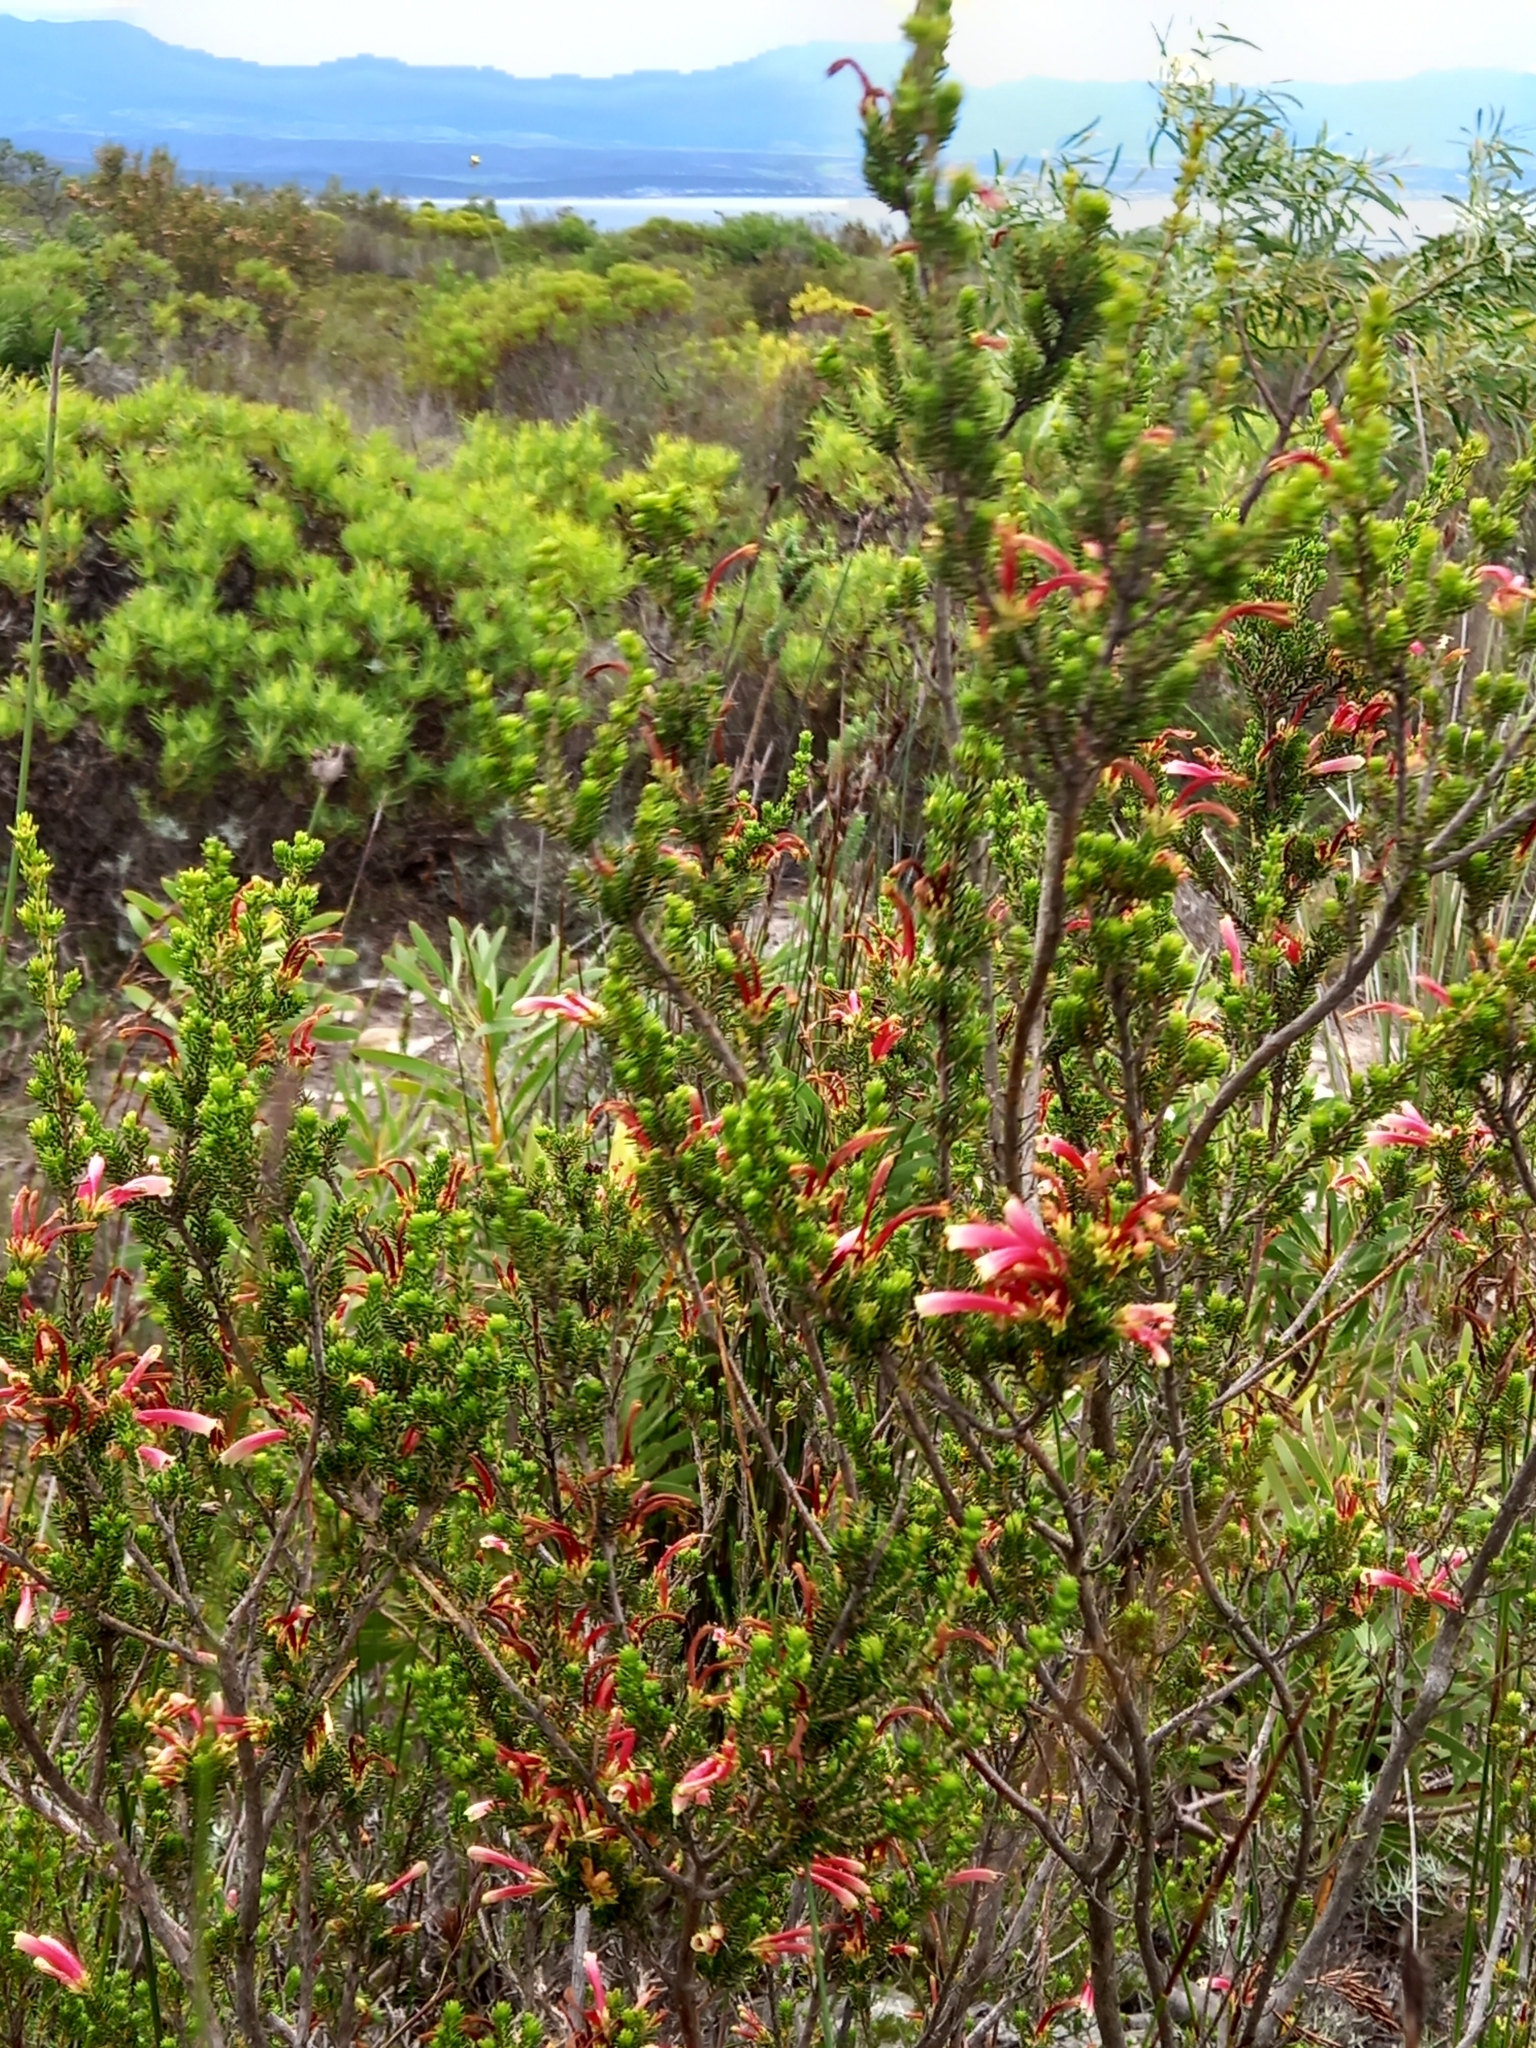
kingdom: Plantae
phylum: Tracheophyta
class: Magnoliopsida
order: Ericales
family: Ericaceae
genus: Erica
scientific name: Erica versicolor
